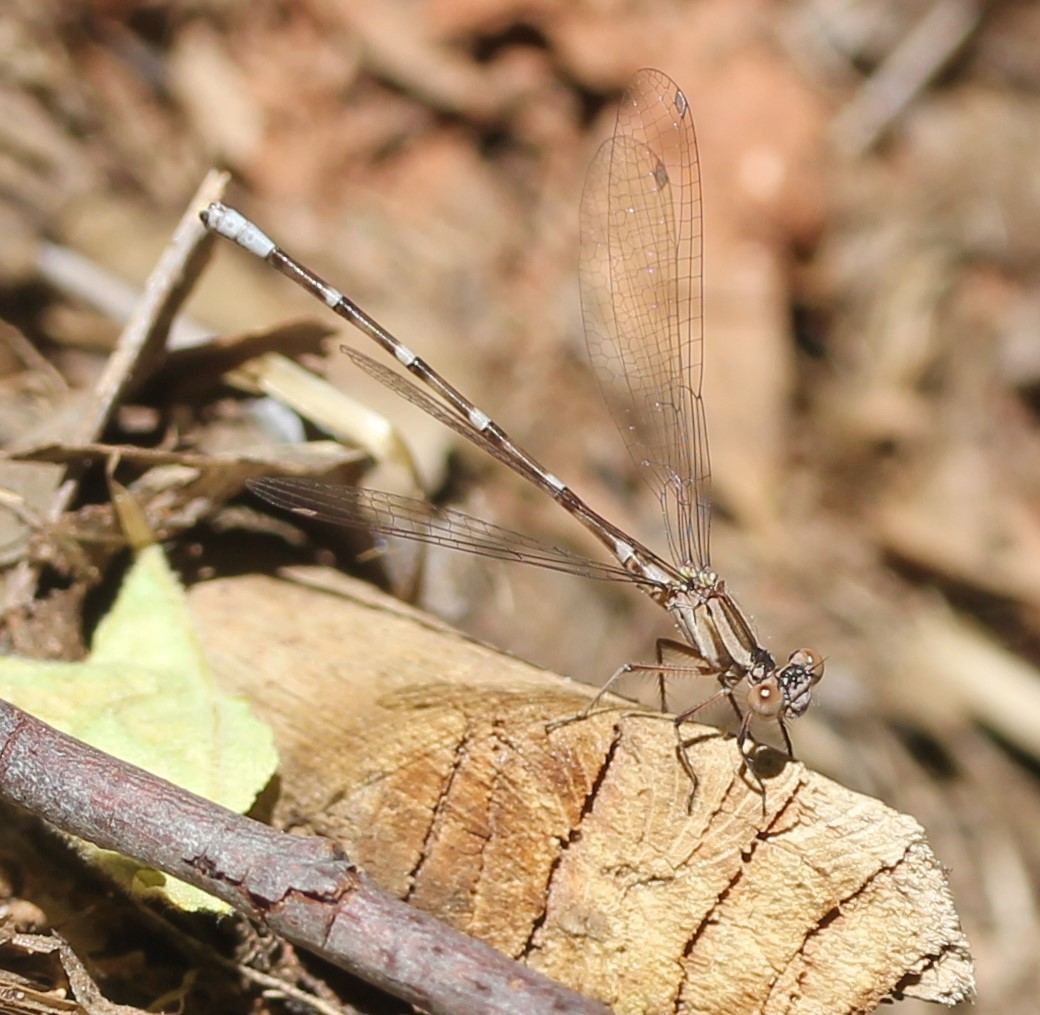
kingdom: Animalia
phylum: Arthropoda
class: Insecta
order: Odonata
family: Coenagrionidae
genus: Argia
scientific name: Argia sedula
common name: Blue-ringed dancer
